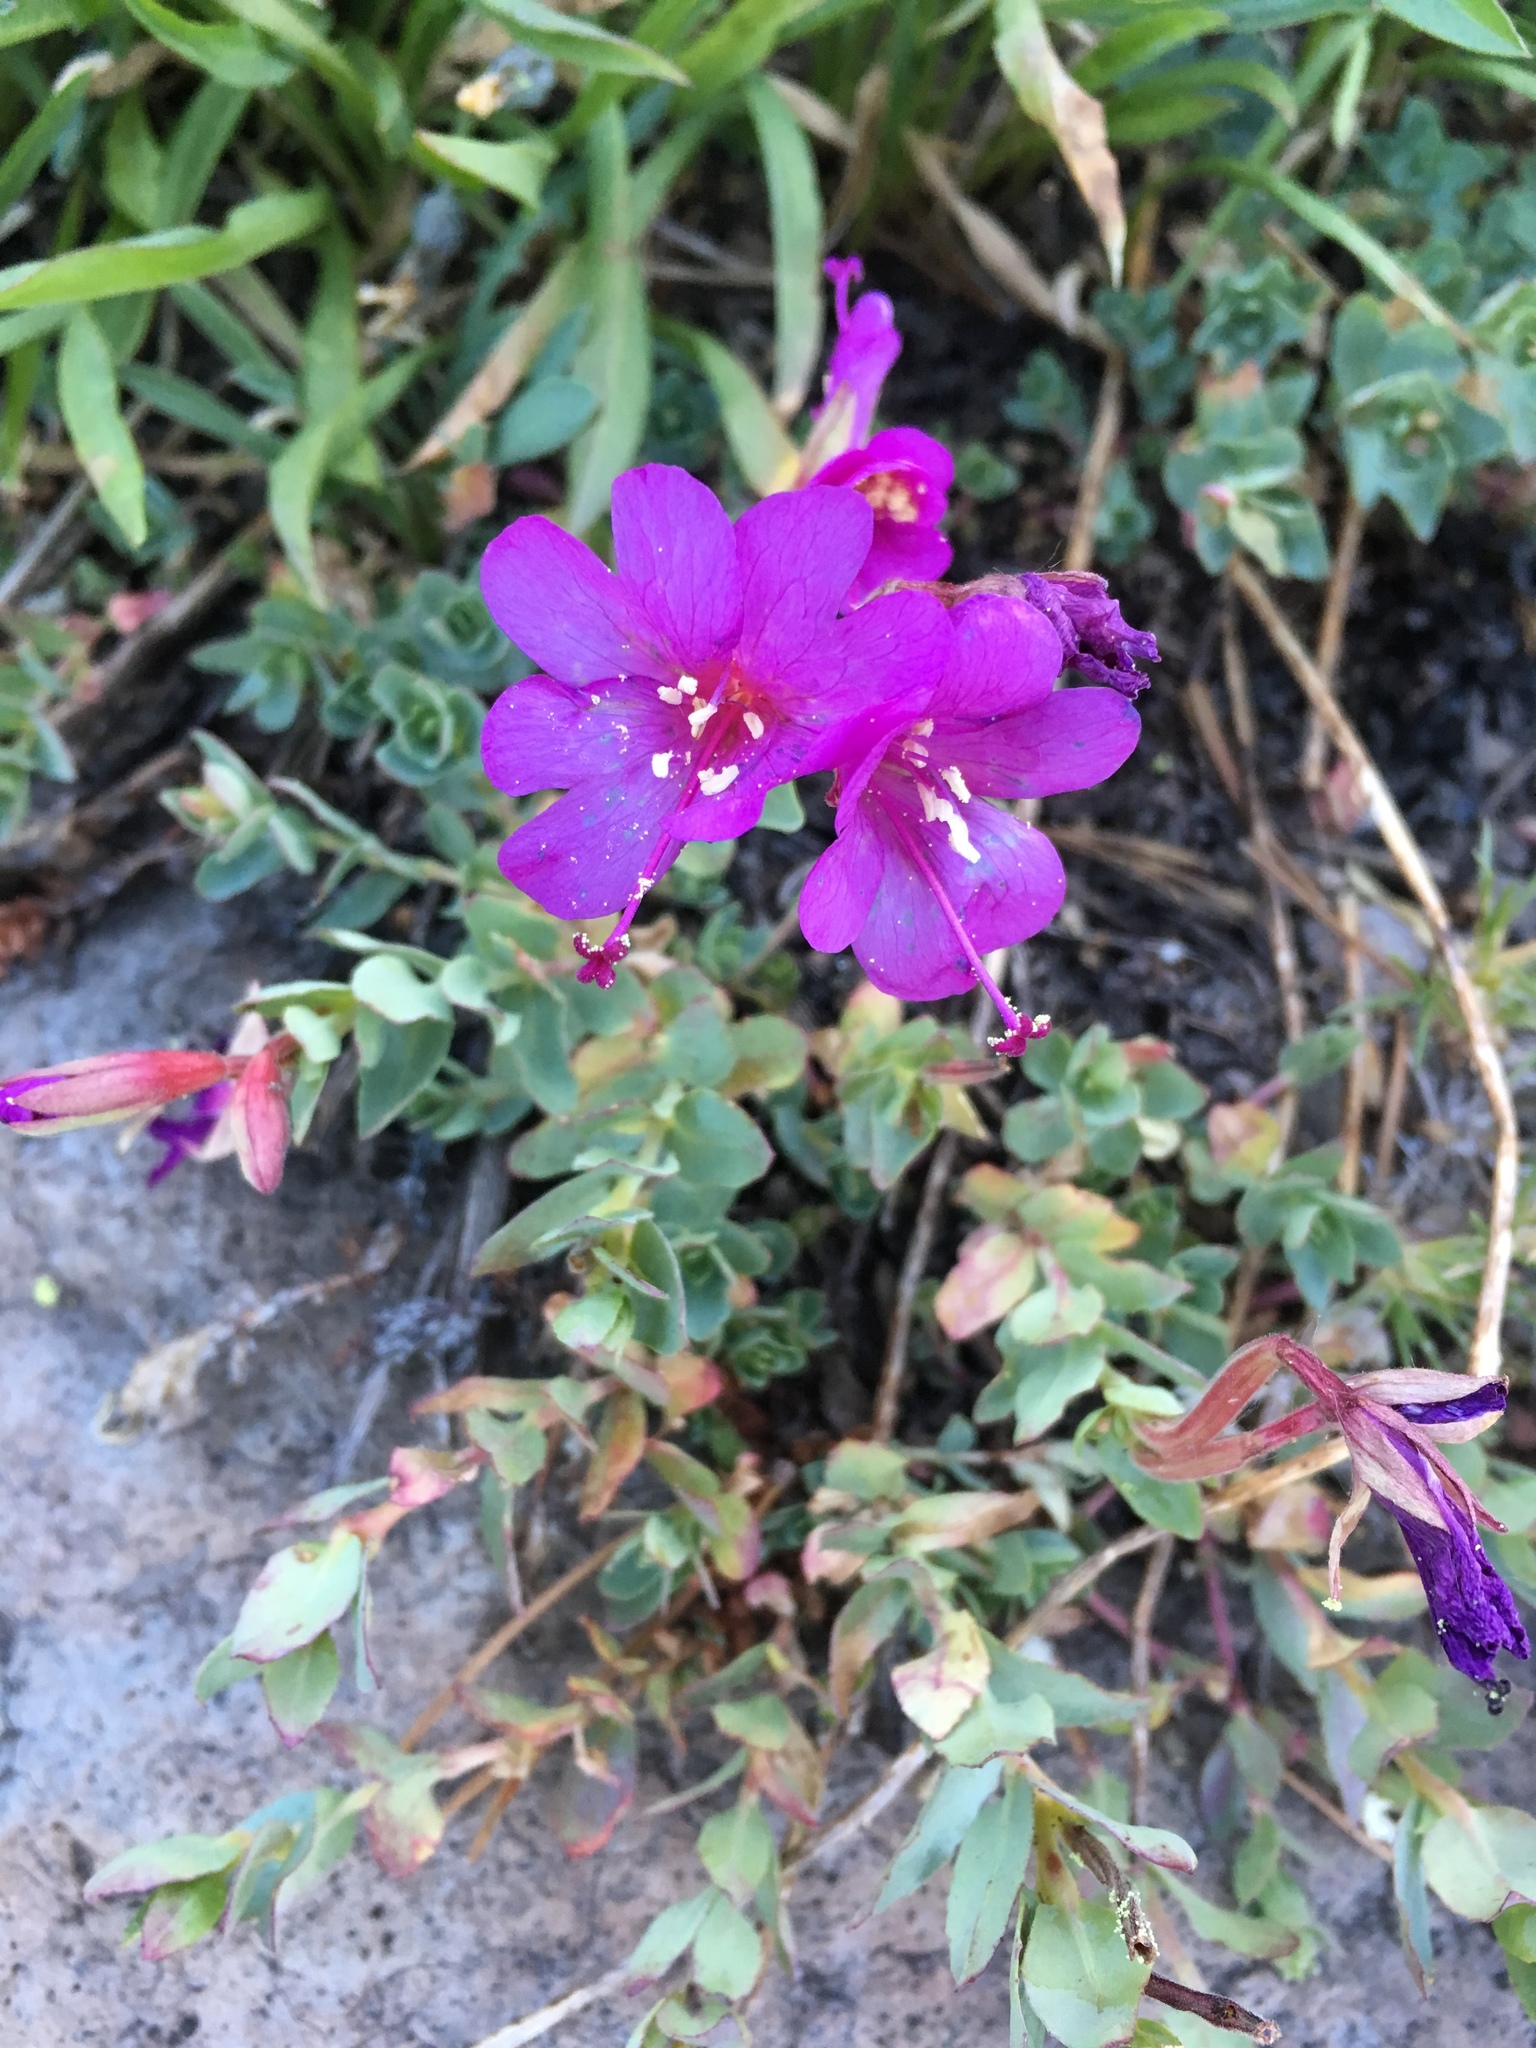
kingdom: Plantae
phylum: Tracheophyta
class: Magnoliopsida
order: Myrtales
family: Onagraceae
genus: Epilobium
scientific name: Epilobium obcordatum
